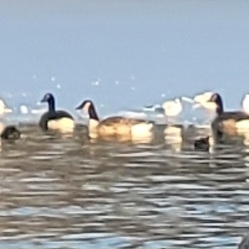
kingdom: Animalia
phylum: Chordata
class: Aves
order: Anseriformes
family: Anatidae
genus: Branta
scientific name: Branta canadensis
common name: Canada goose
